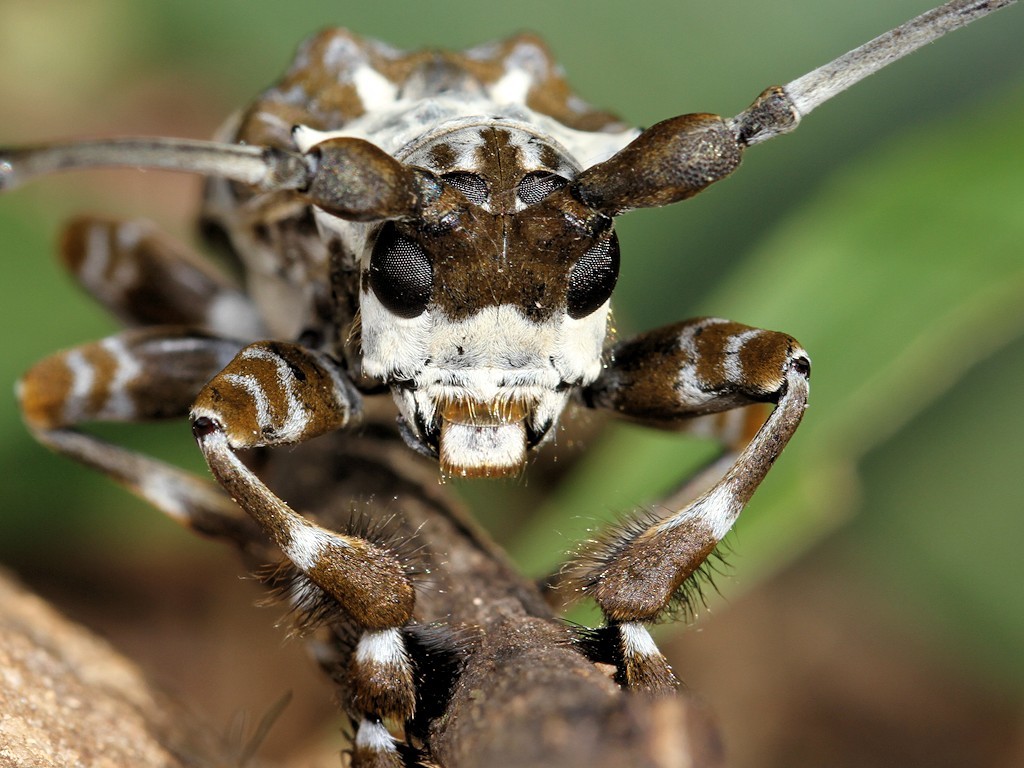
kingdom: Animalia
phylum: Arthropoda
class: Insecta
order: Coleoptera
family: Cerambycidae
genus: Lasiopezus
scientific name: Lasiopezus longimanus
